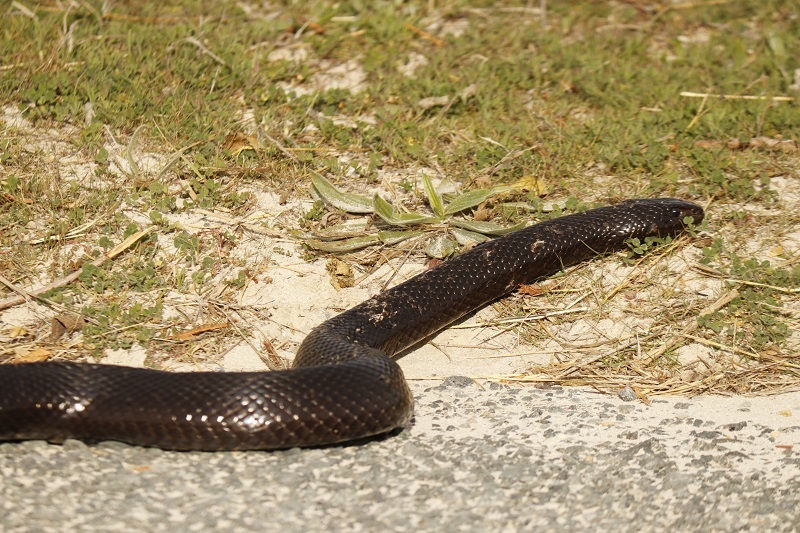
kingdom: Animalia
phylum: Chordata
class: Squamata
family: Pseudaspididae
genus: Pseudaspis
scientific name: Pseudaspis cana
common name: Mole snake
